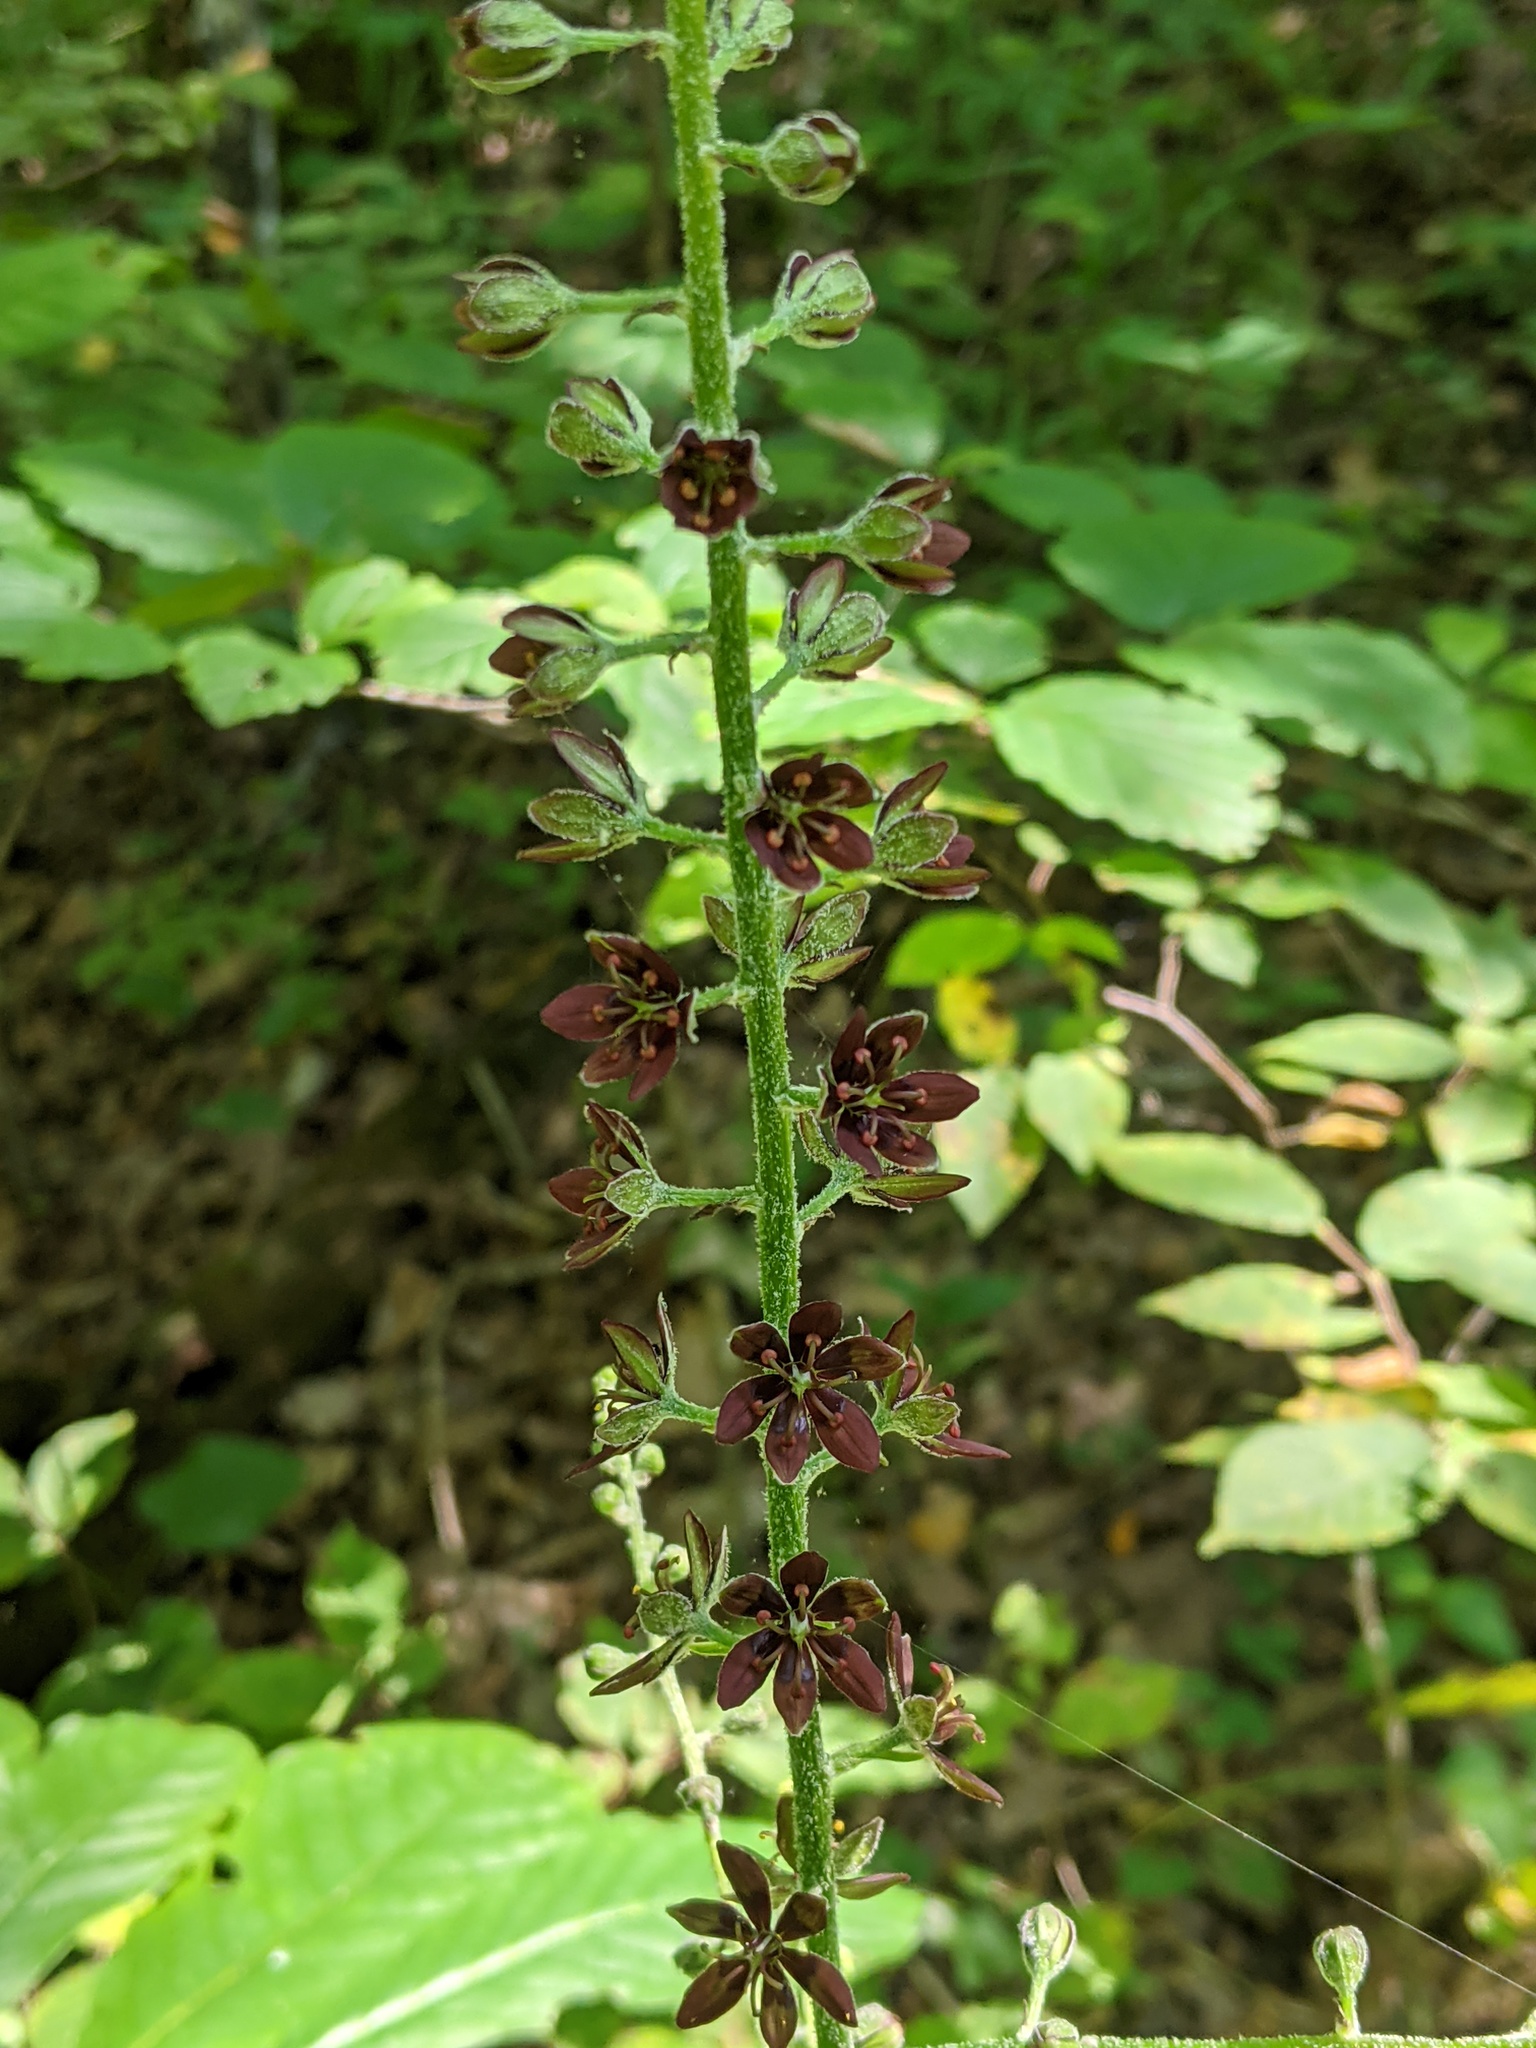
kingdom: Plantae
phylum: Tracheophyta
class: Liliopsida
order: Liliales
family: Melanthiaceae
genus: Veratrum
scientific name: Veratrum woodii
